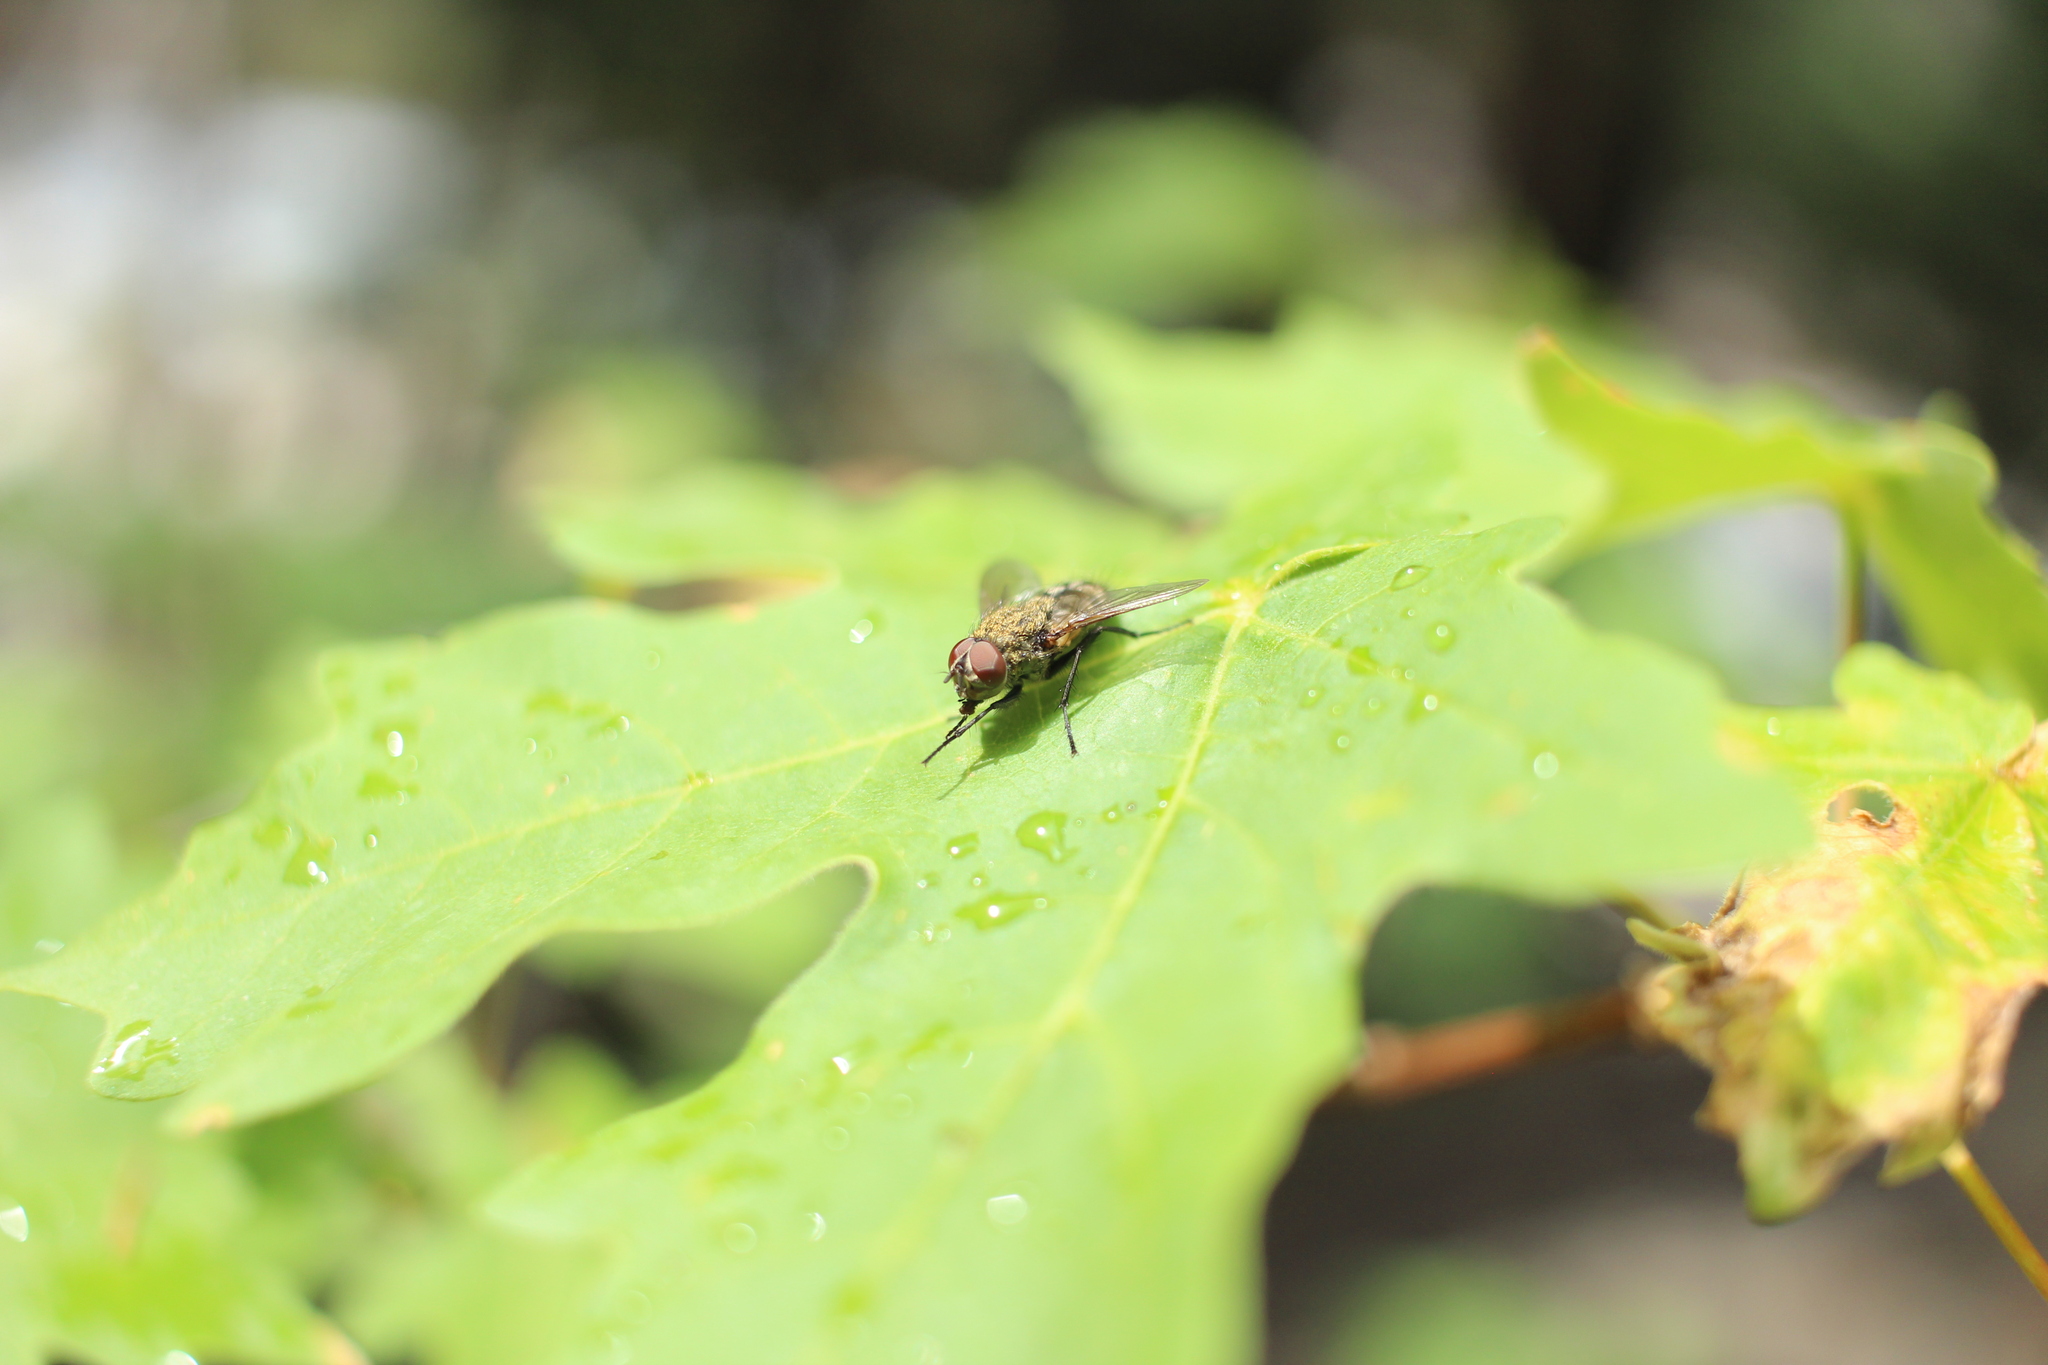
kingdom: Animalia
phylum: Arthropoda
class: Insecta
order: Diptera
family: Polleniidae
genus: Pollenia
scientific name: Pollenia
